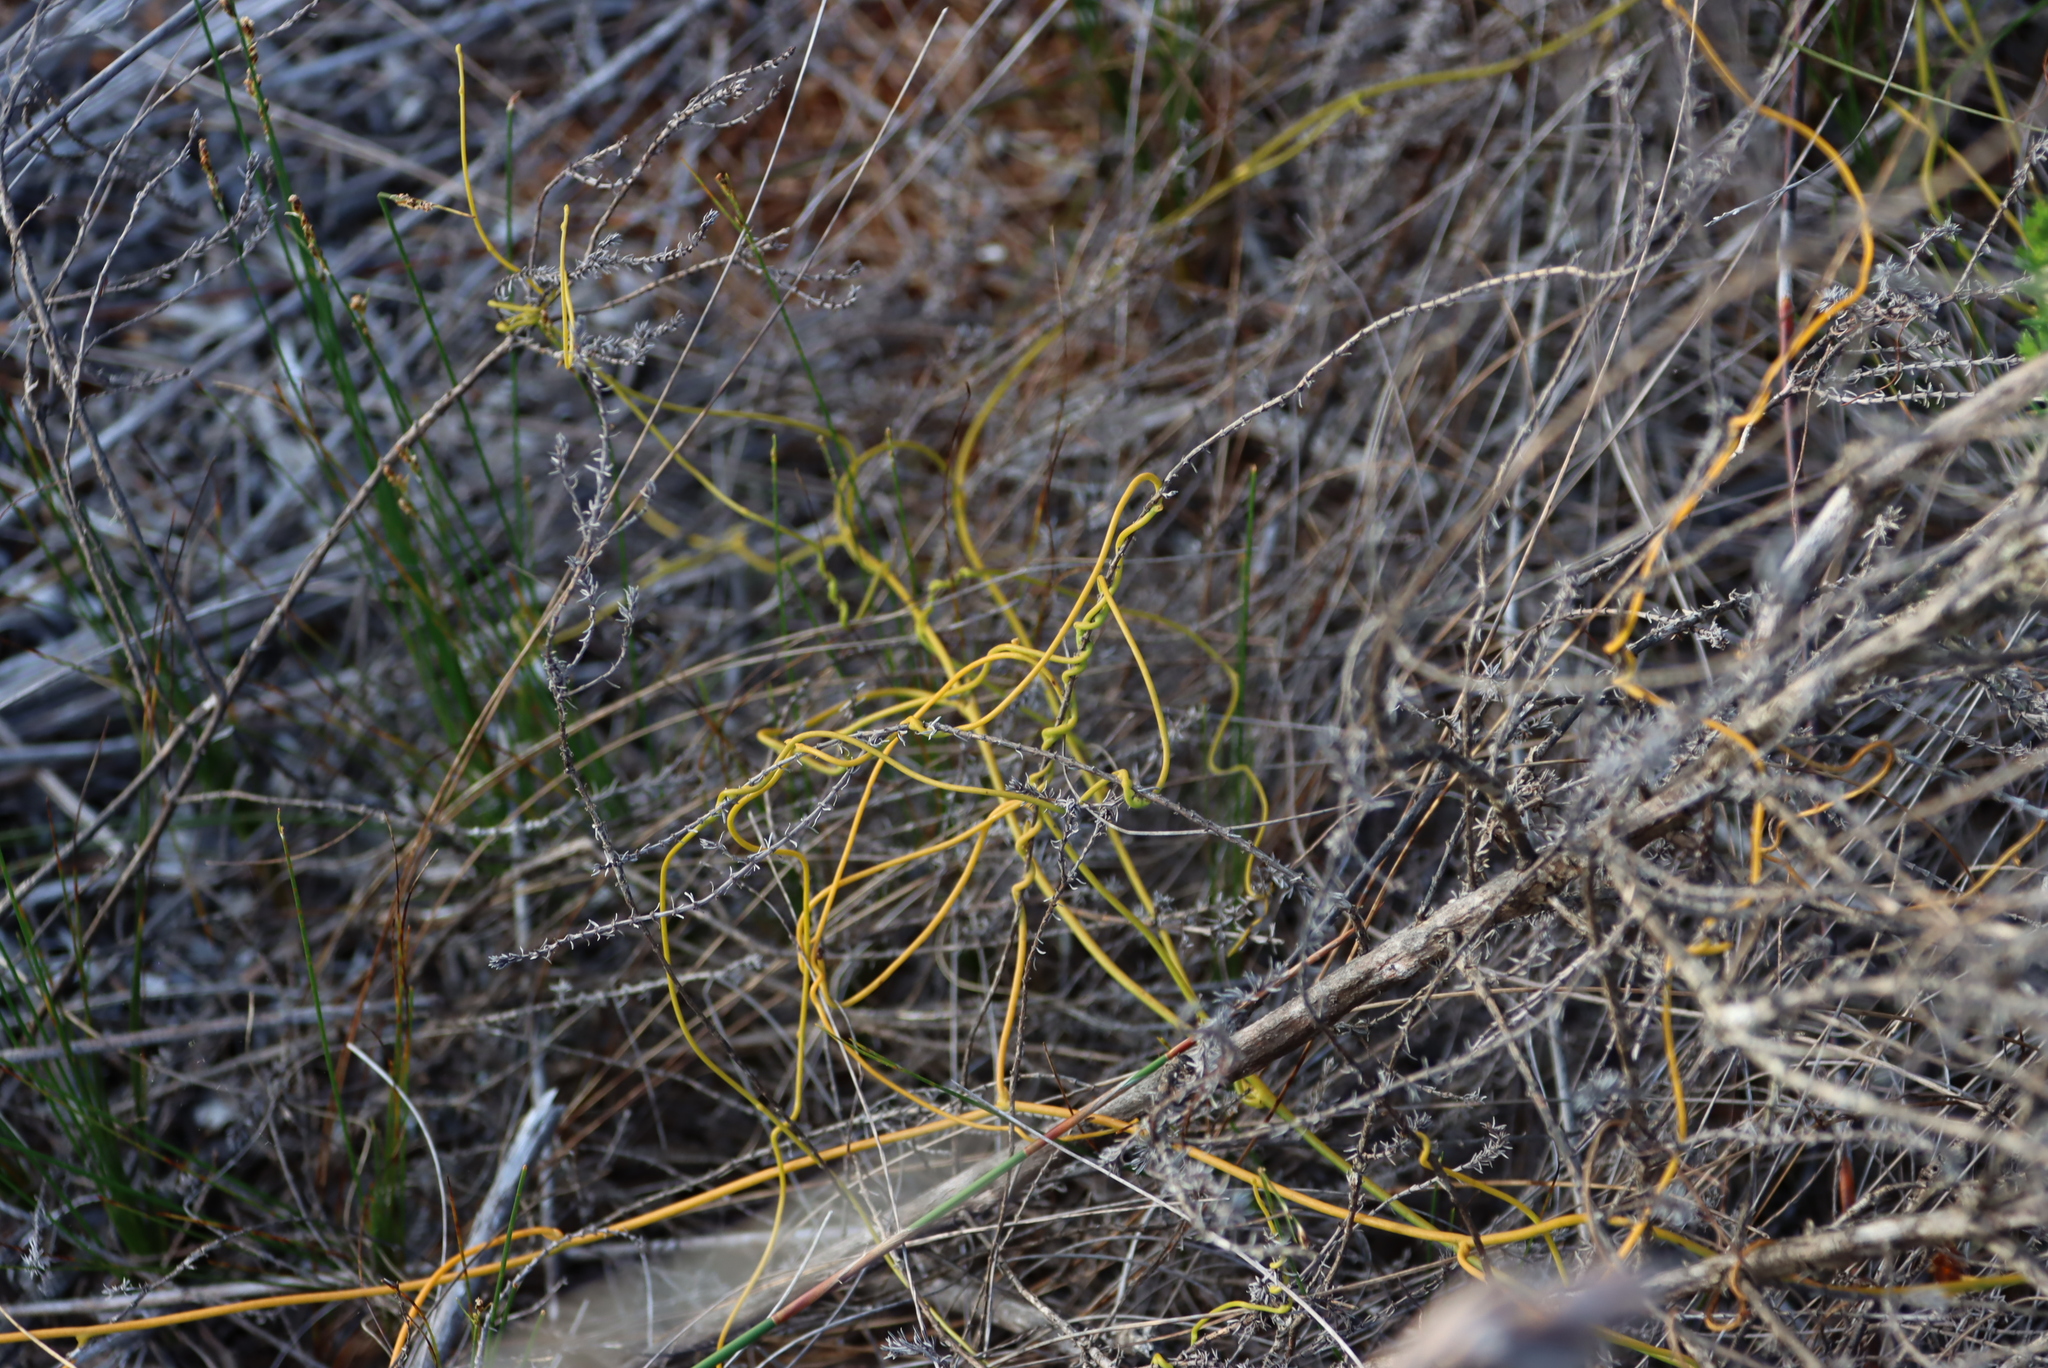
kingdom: Plantae
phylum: Tracheophyta
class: Magnoliopsida
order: Laurales
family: Lauraceae
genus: Cassytha
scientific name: Cassytha ciliolata
